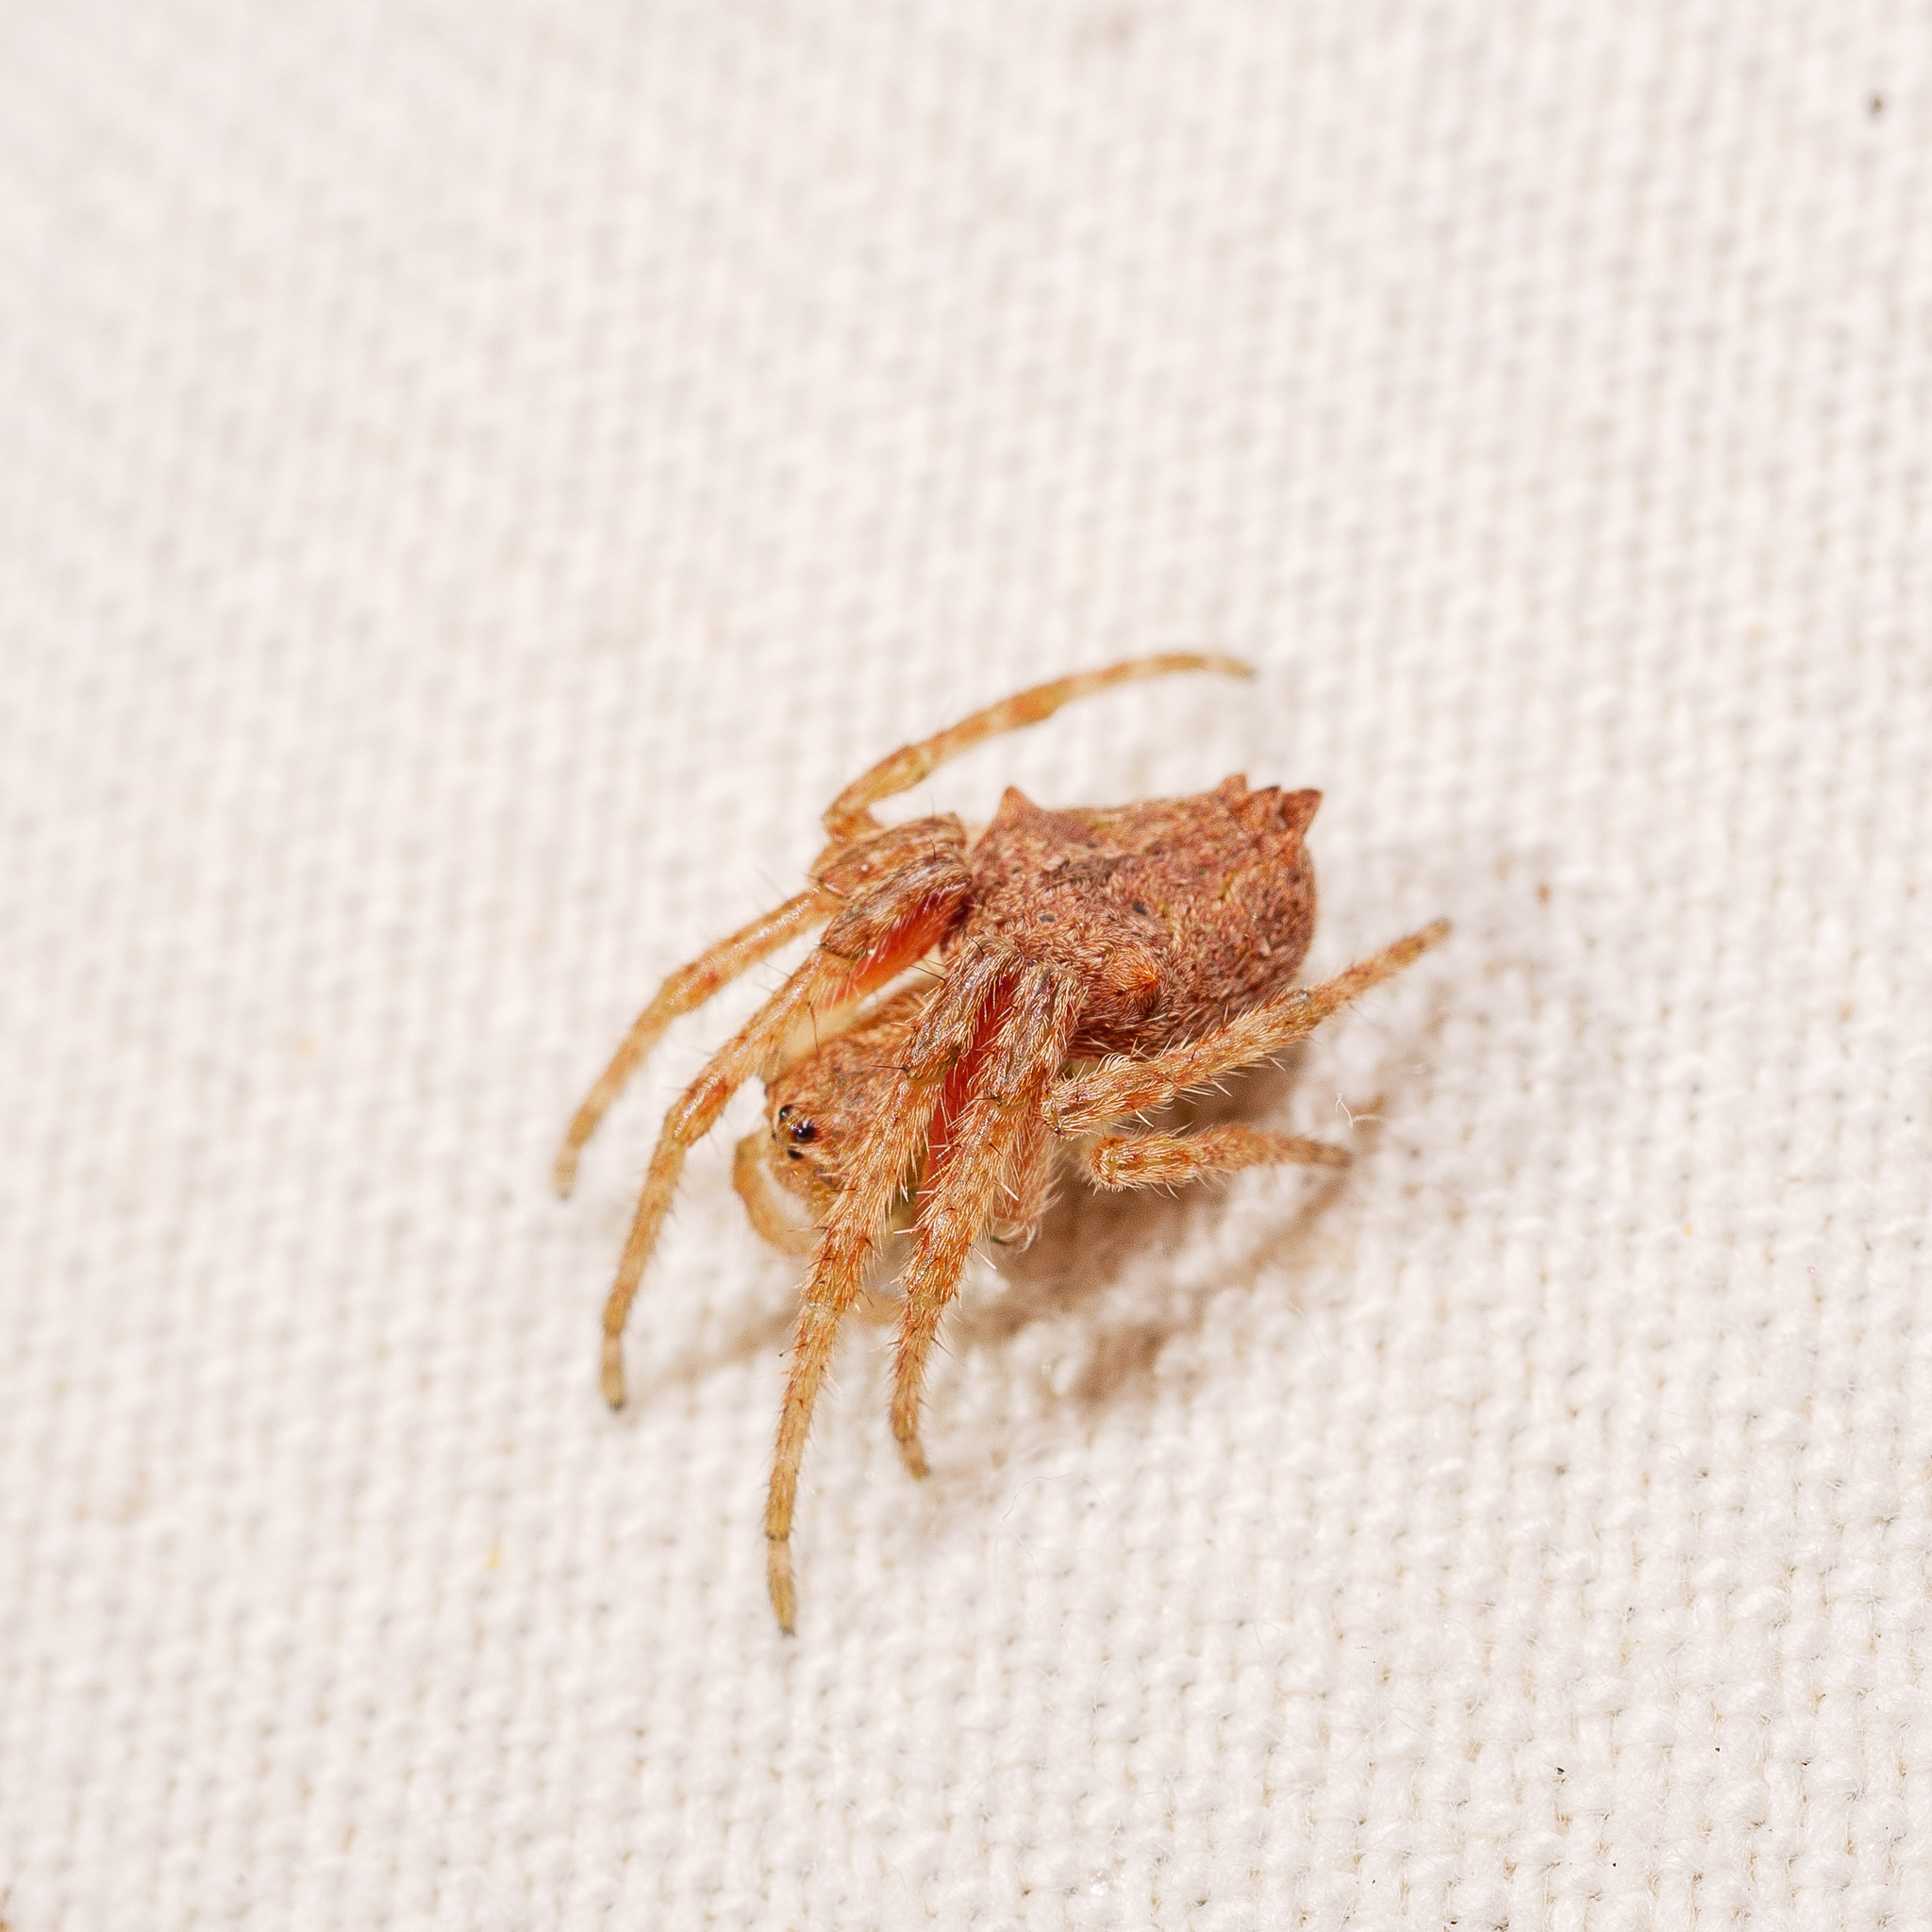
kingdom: Animalia
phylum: Arthropoda
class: Arachnida
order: Araneae
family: Araneidae
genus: Eriophora
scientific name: Eriophora pustulosa
